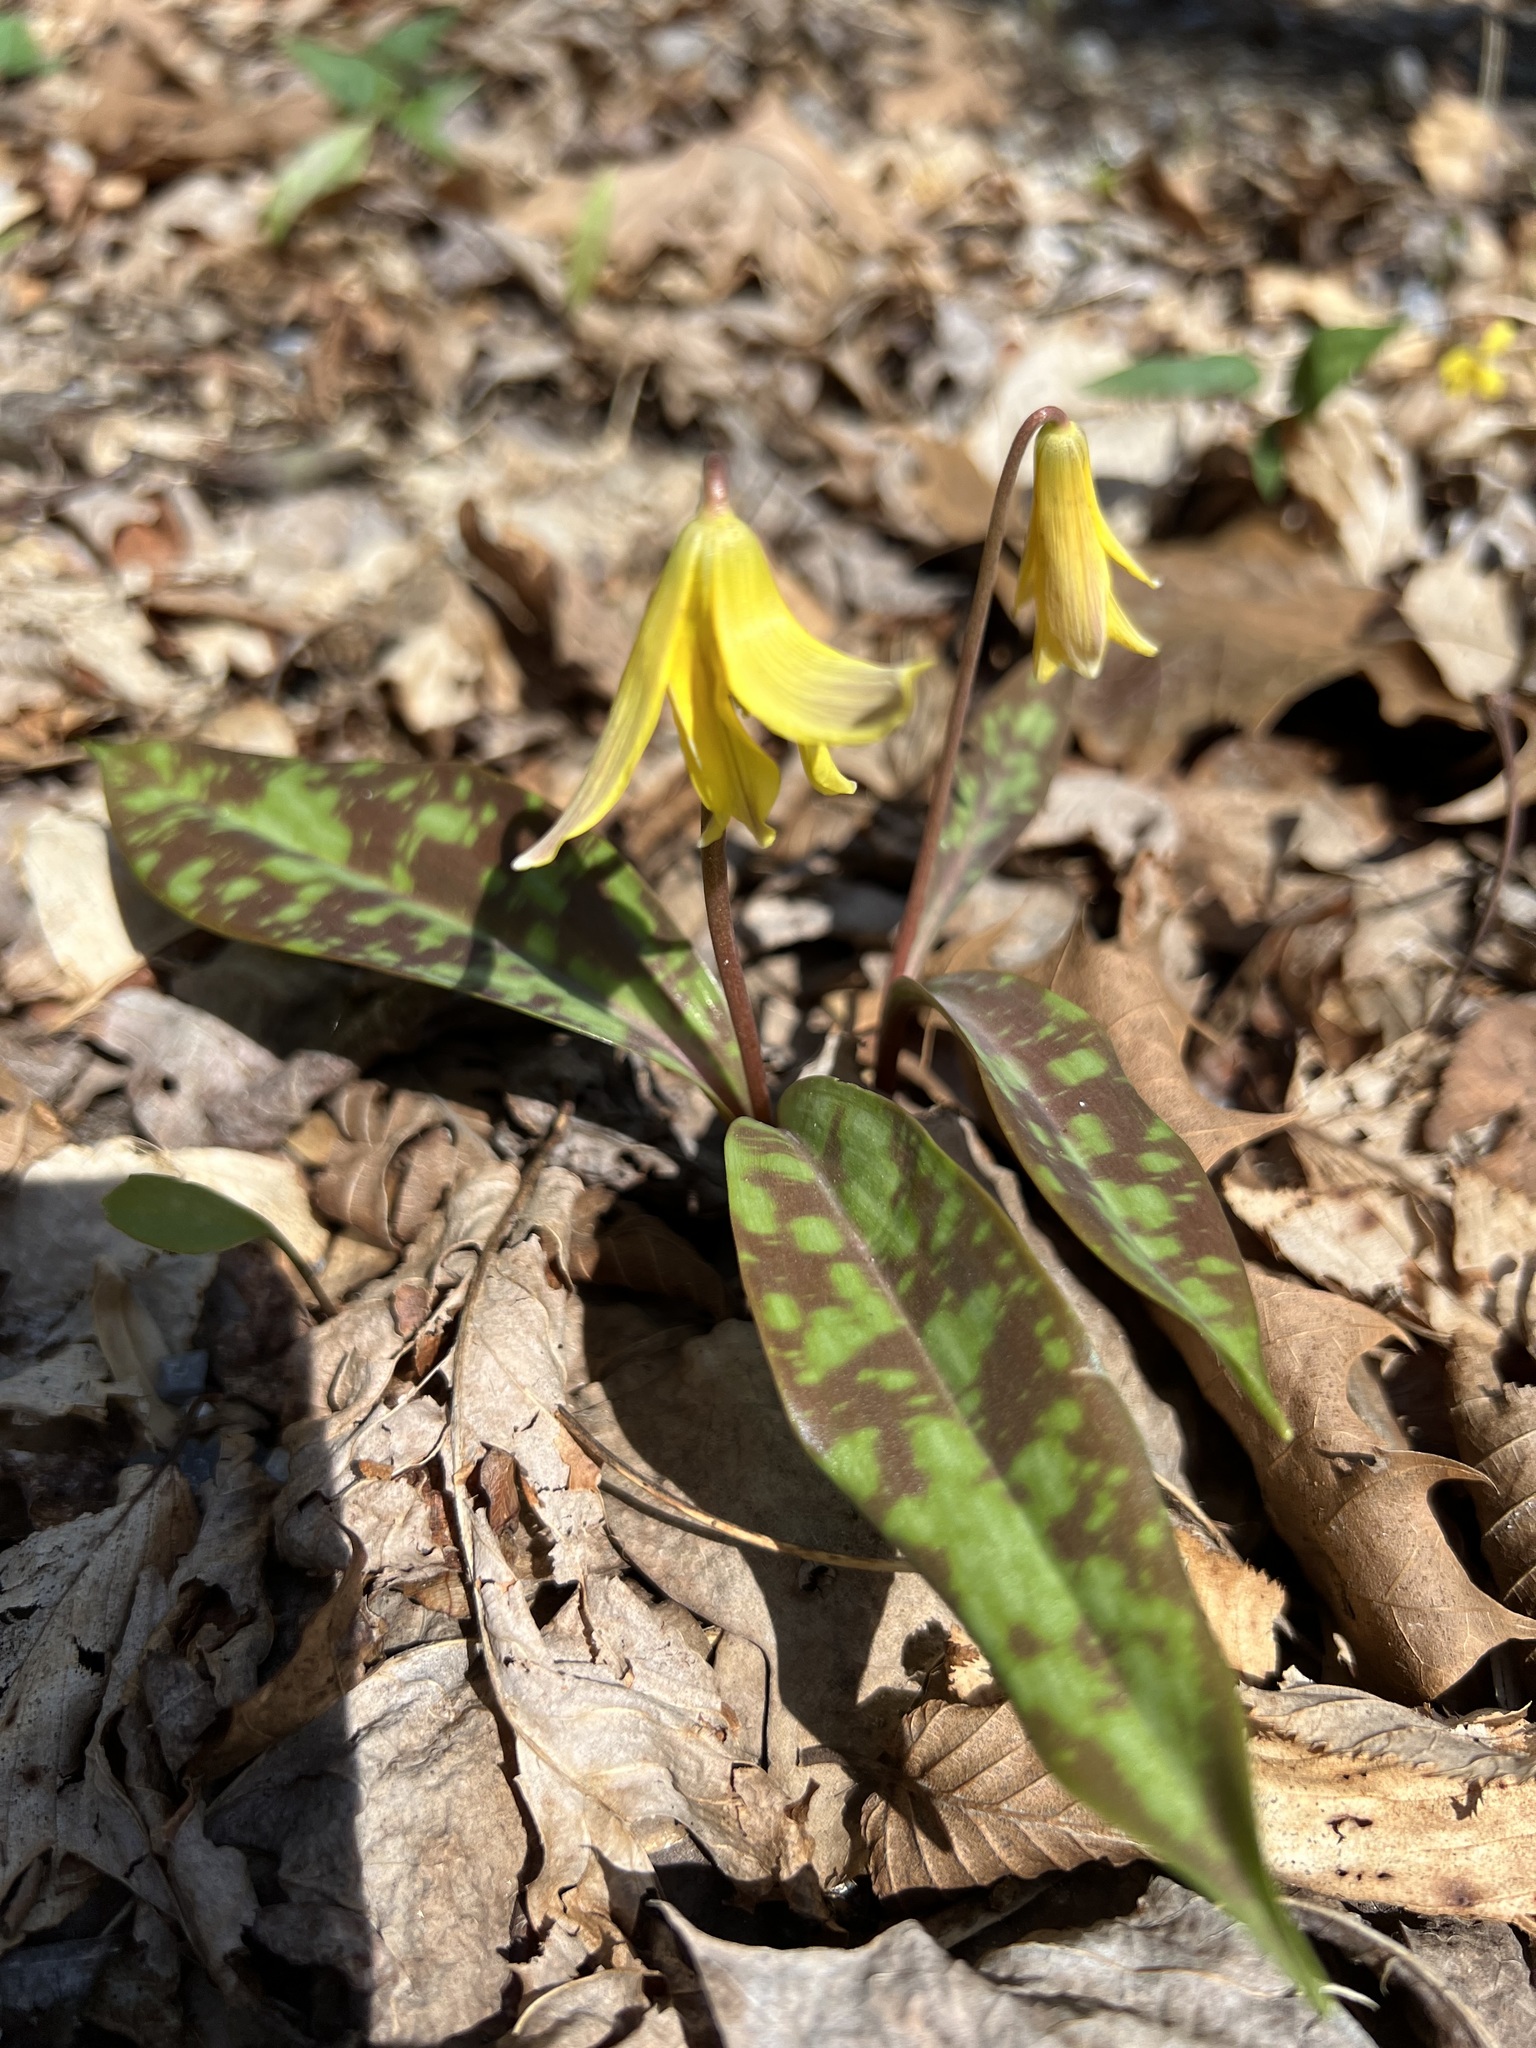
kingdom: Plantae
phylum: Tracheophyta
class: Liliopsida
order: Liliales
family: Liliaceae
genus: Erythronium
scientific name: Erythronium americanum
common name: Yellow adder's-tongue
